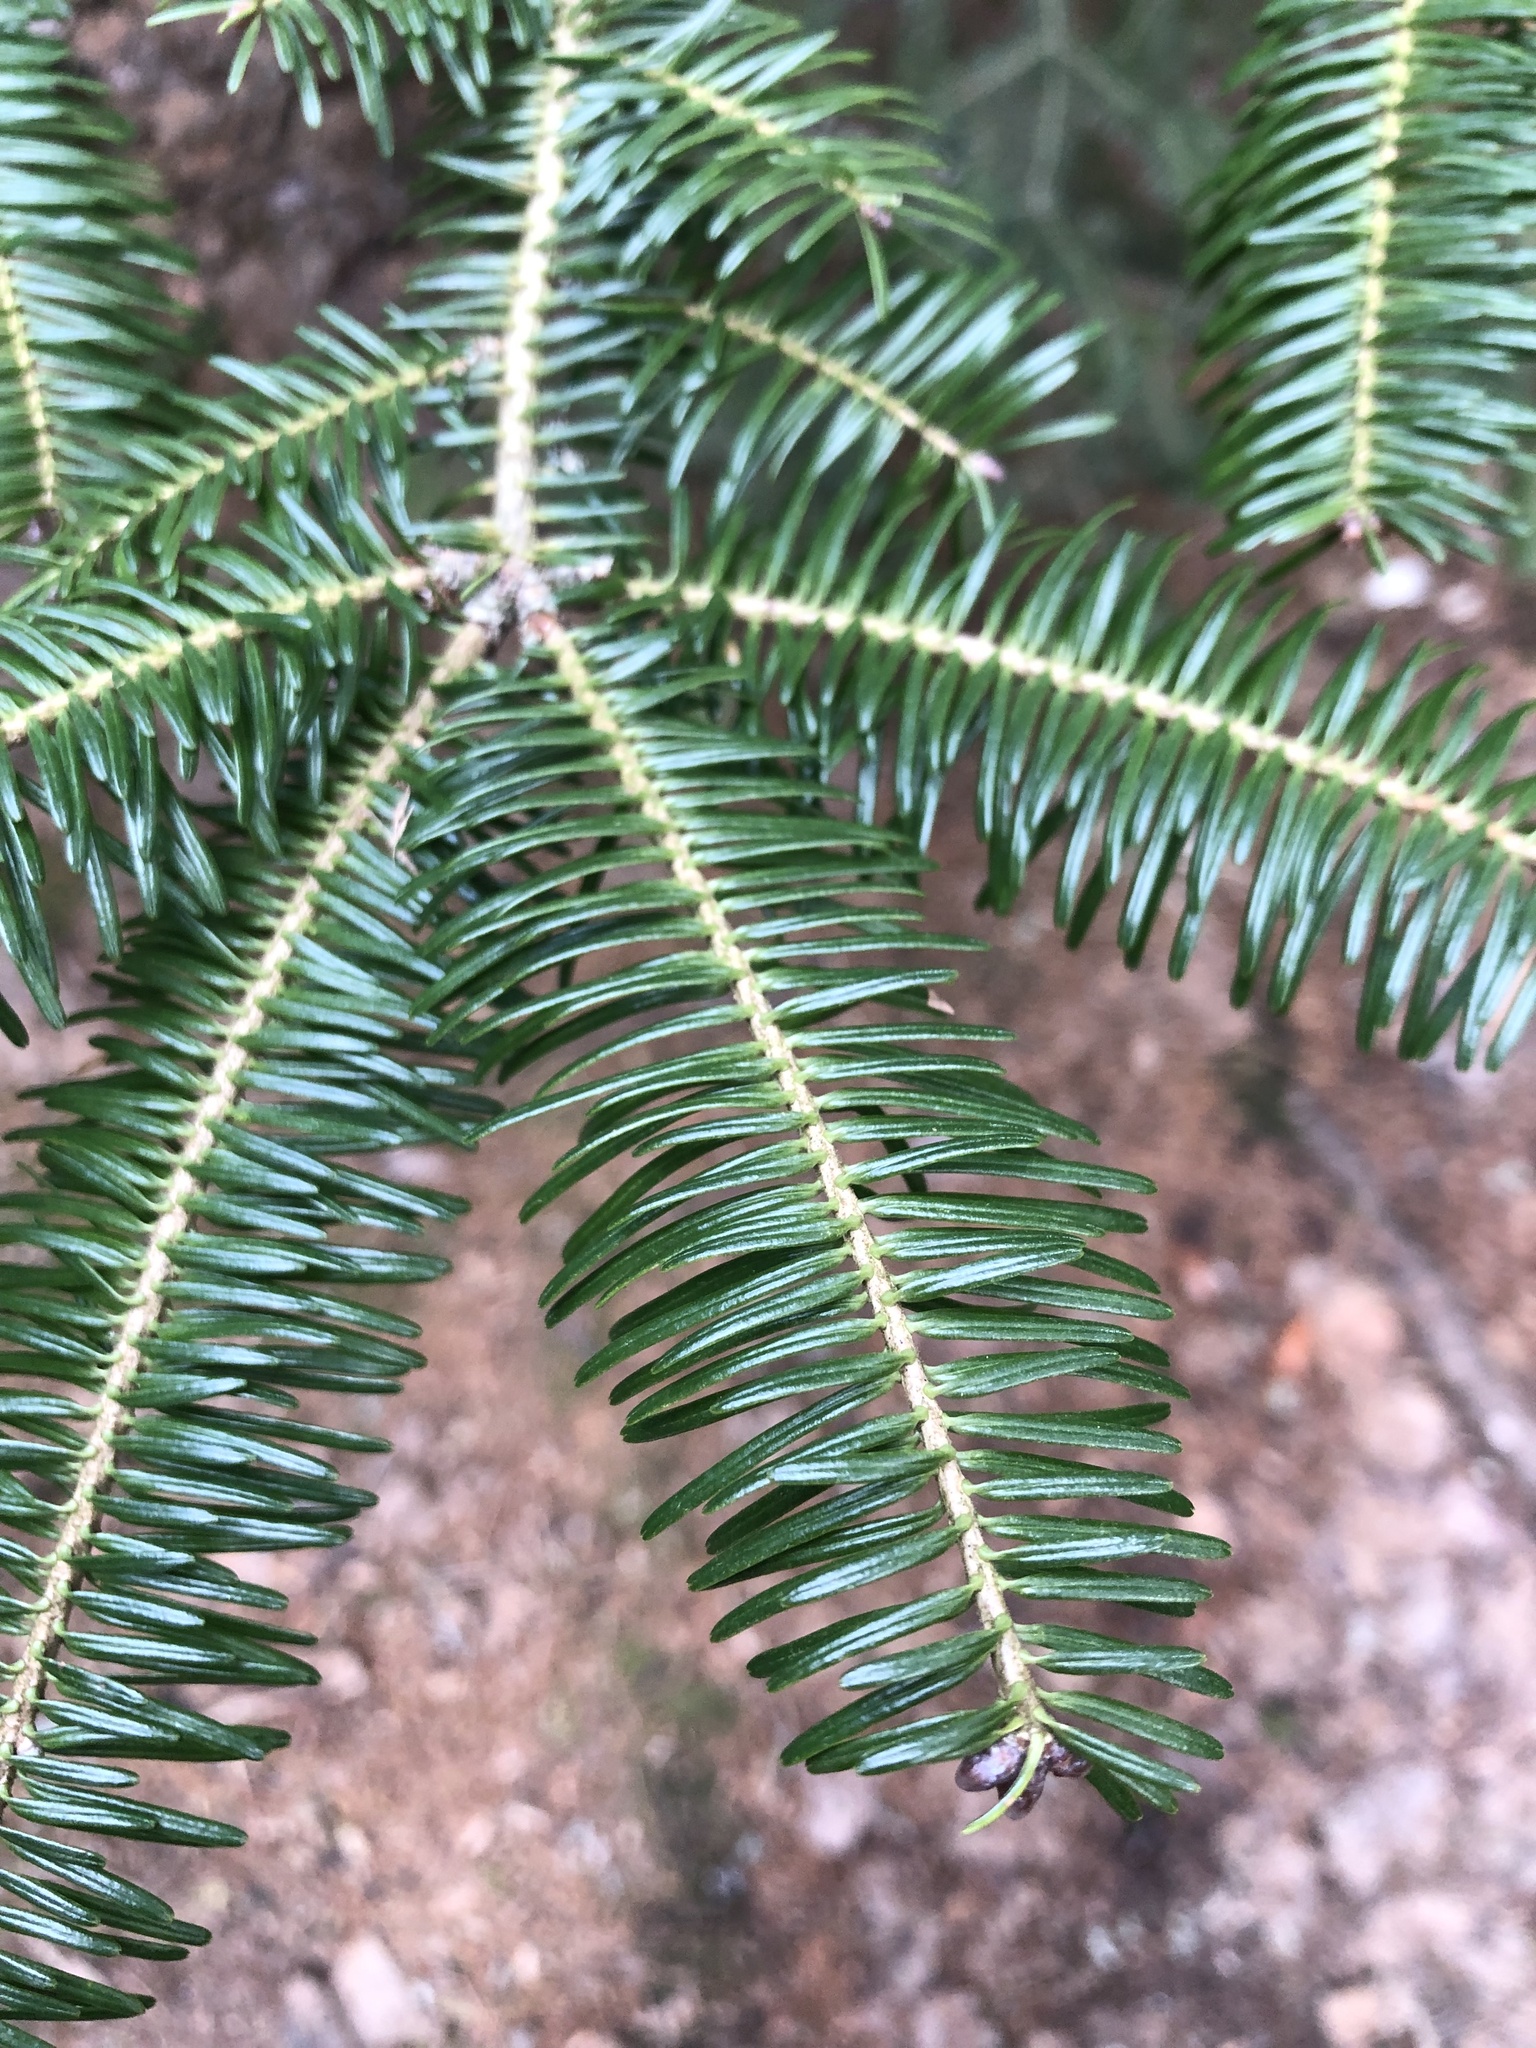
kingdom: Plantae
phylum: Tracheophyta
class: Pinopsida
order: Pinales
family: Pinaceae
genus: Abies
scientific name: Abies balsamea
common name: Balsam fir
